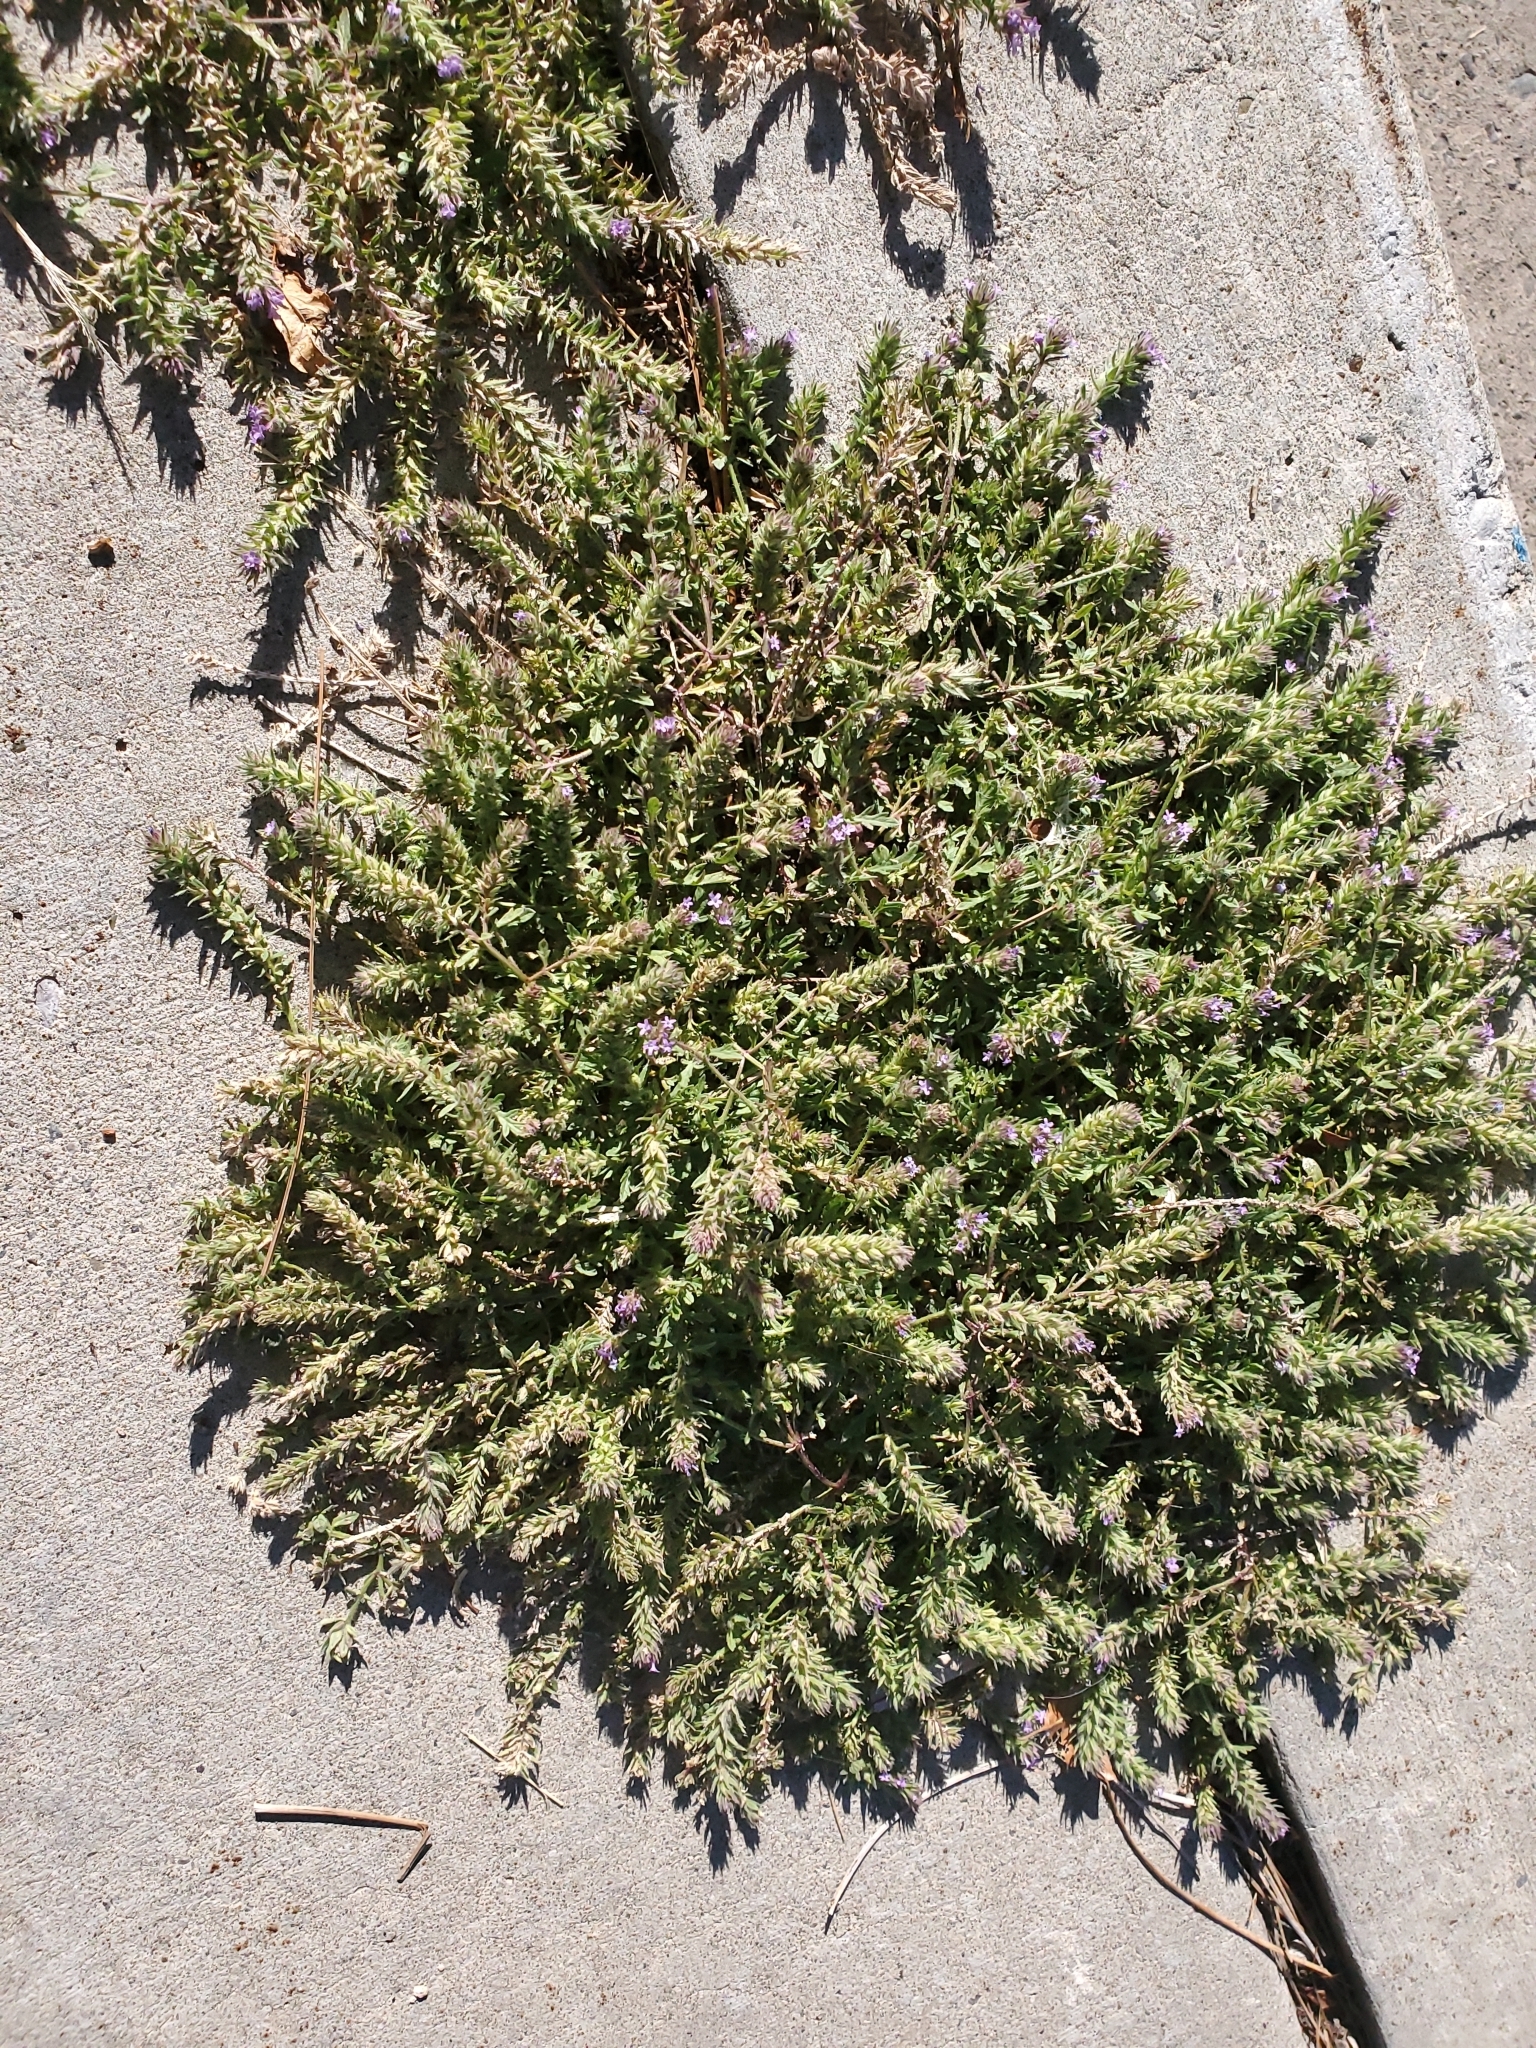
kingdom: Plantae
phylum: Tracheophyta
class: Magnoliopsida
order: Lamiales
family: Verbenaceae
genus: Verbena
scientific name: Verbena bracteata
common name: Bracted vervain
